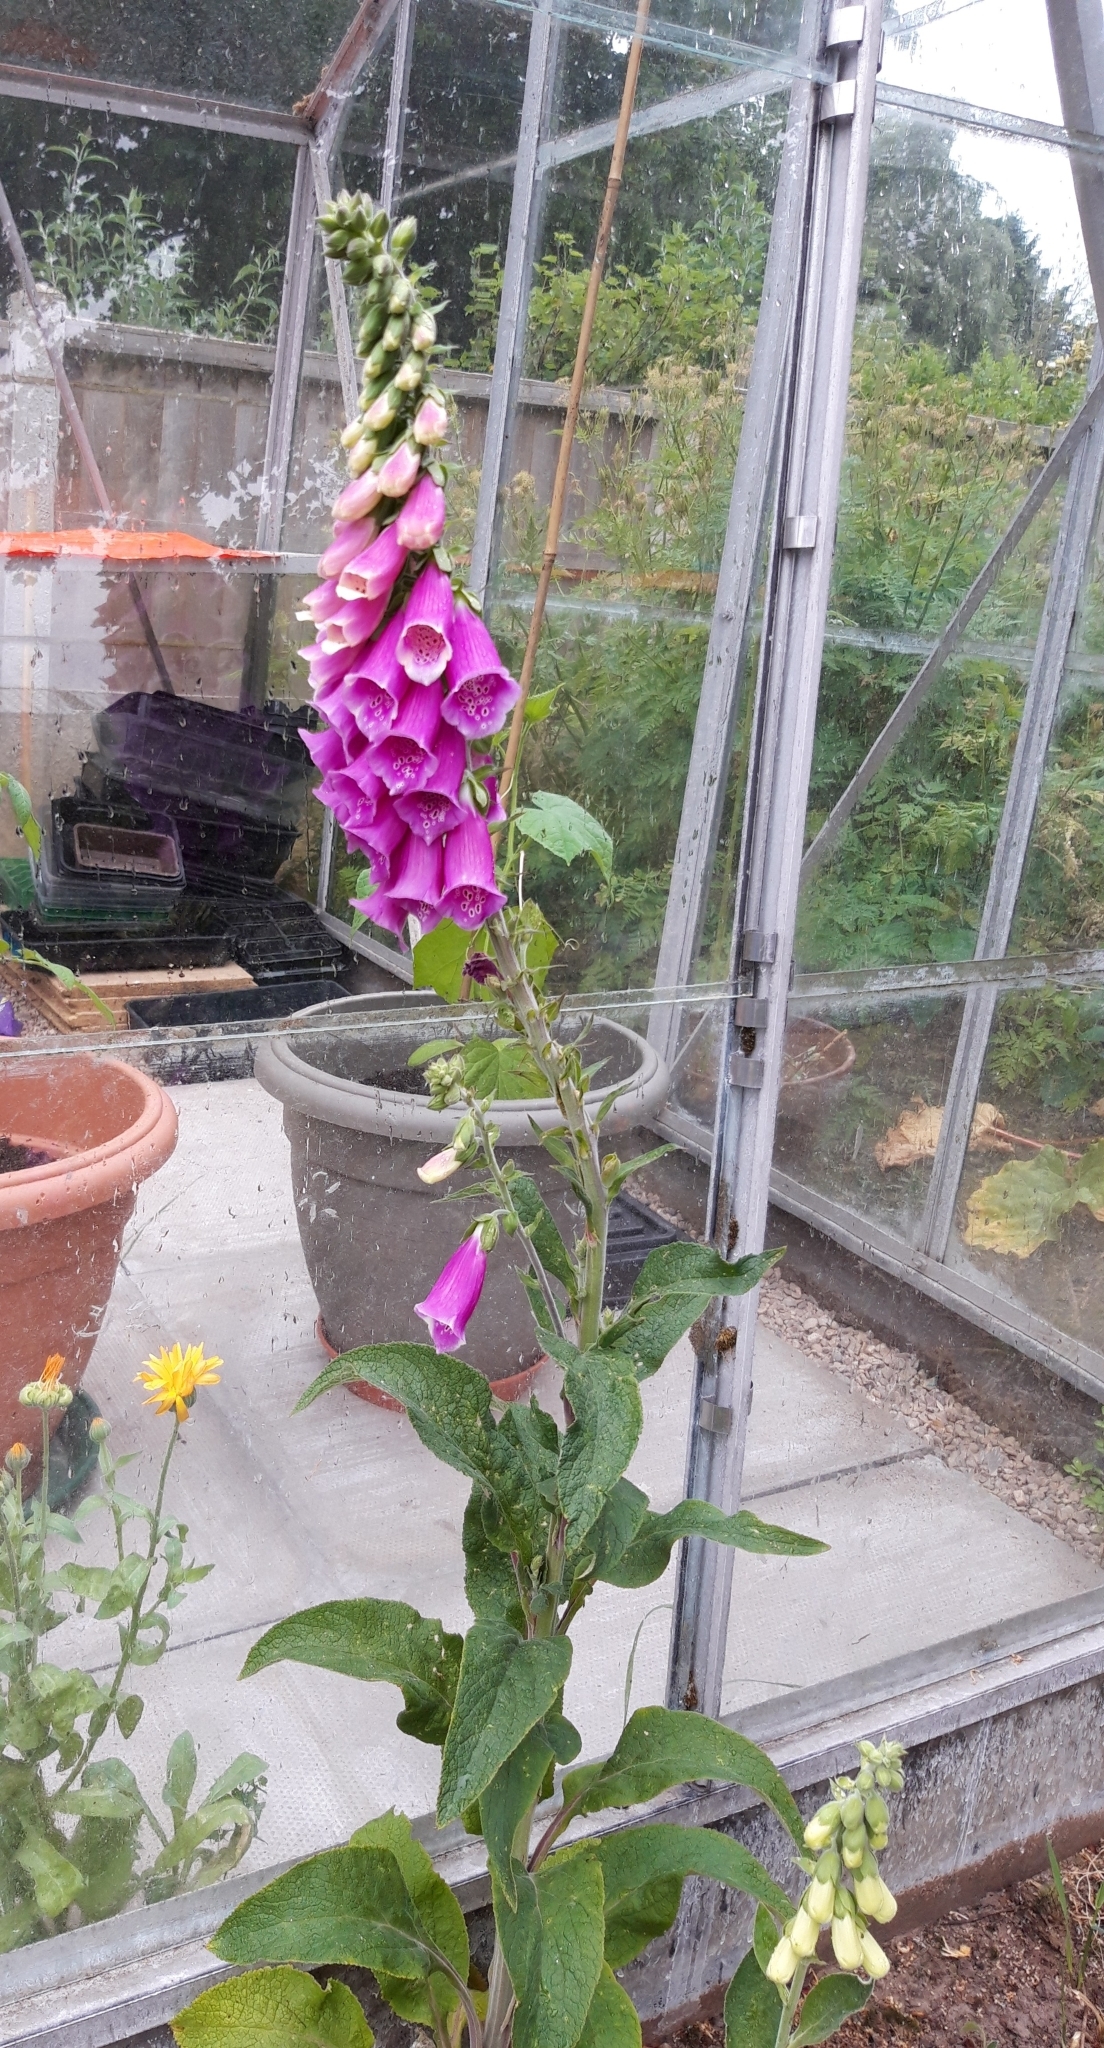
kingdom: Plantae
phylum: Tracheophyta
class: Magnoliopsida
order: Lamiales
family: Plantaginaceae
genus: Digitalis
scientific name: Digitalis purpurea
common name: Foxglove
